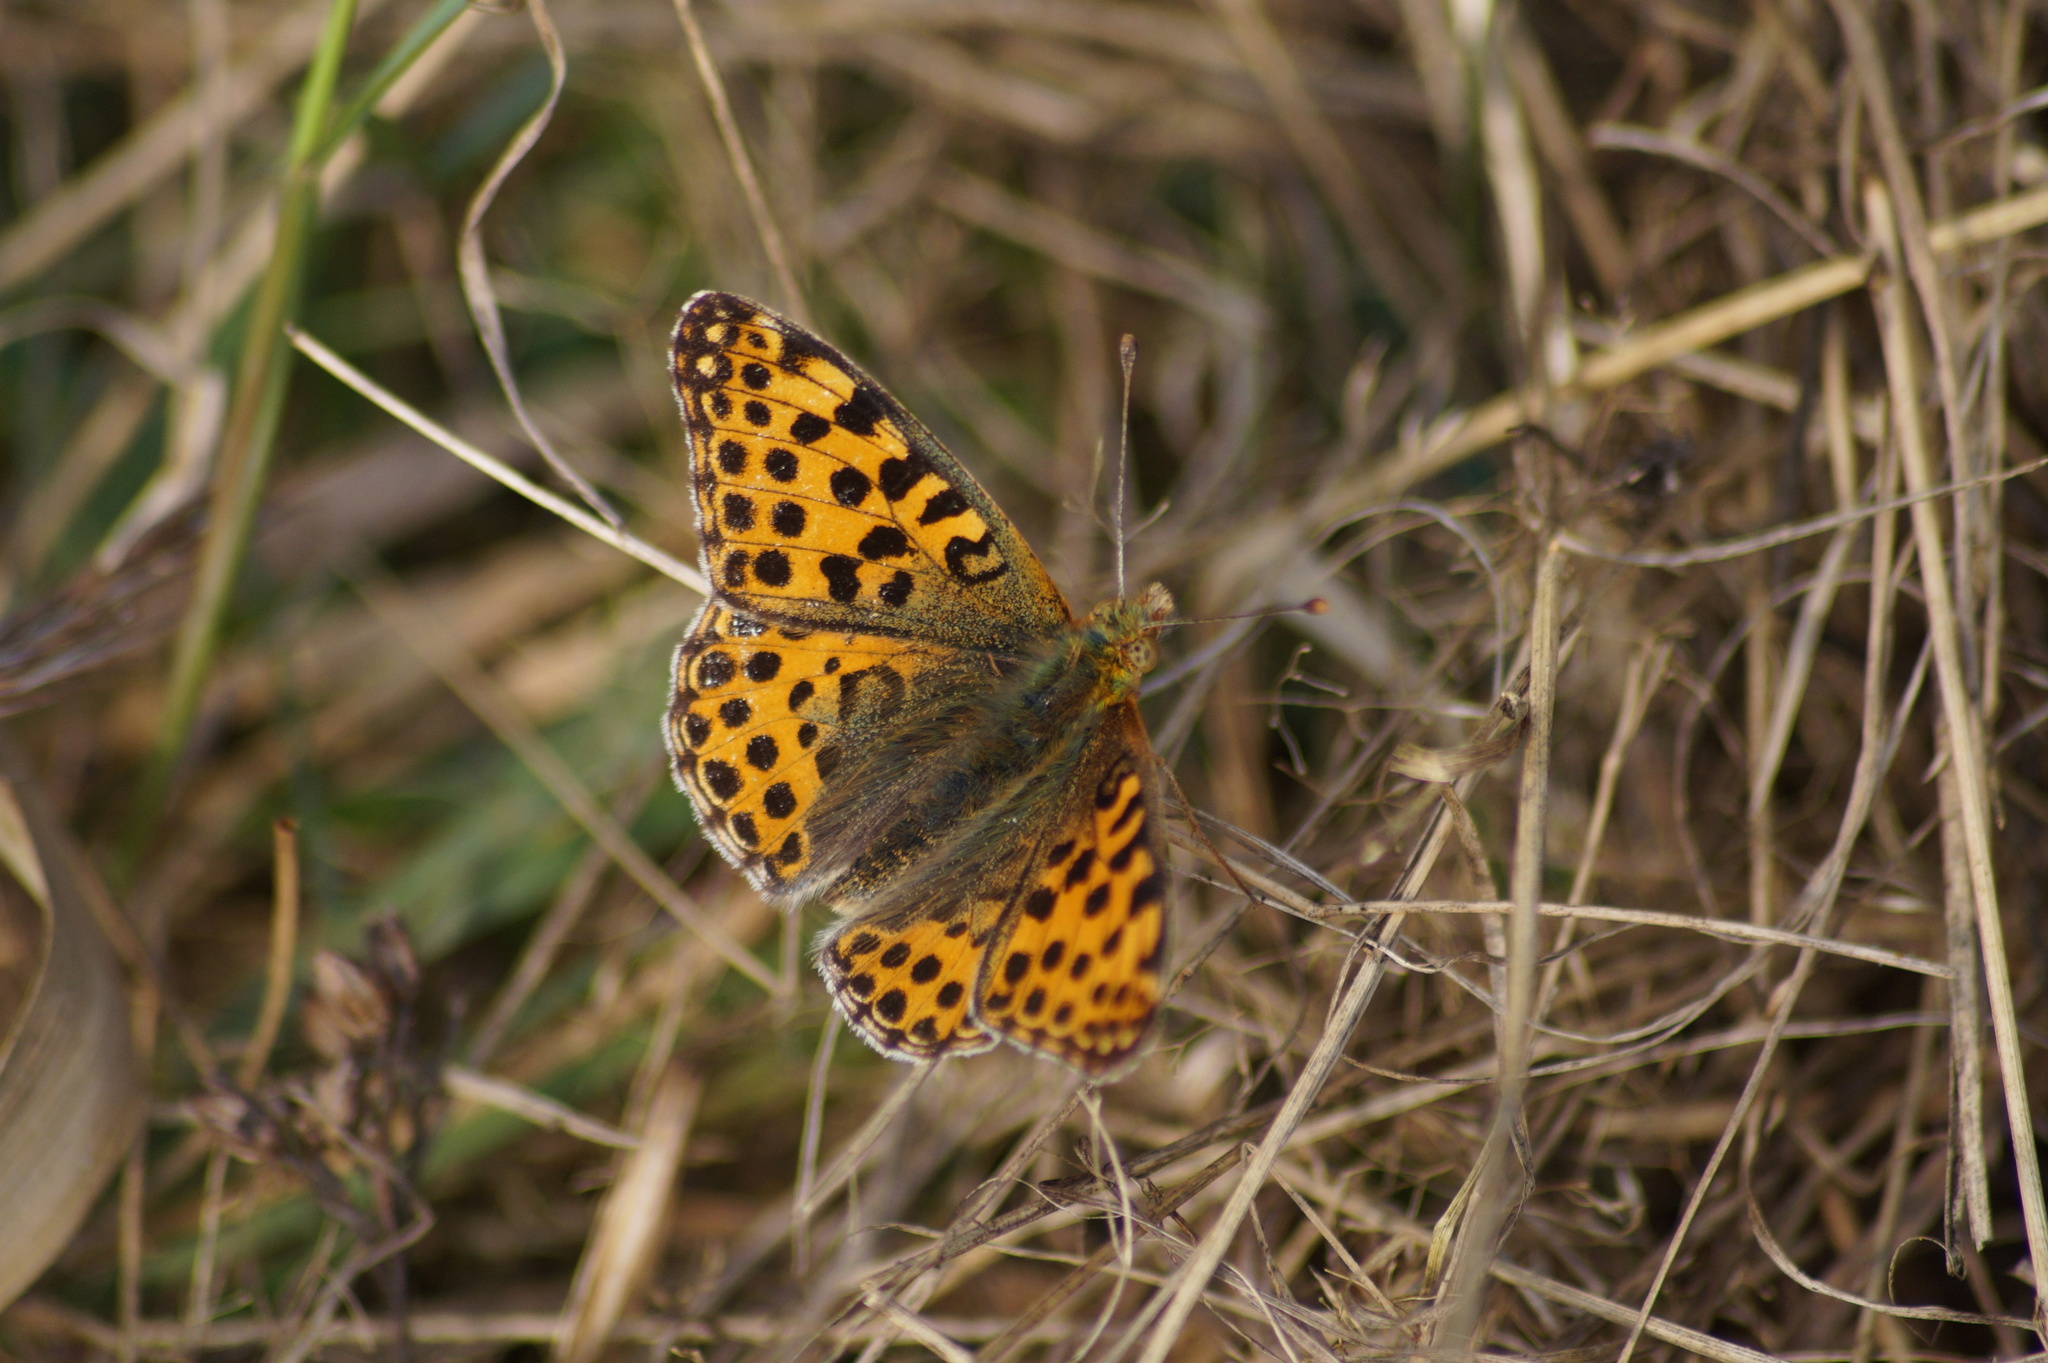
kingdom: Animalia
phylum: Arthropoda
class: Insecta
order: Lepidoptera
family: Nymphalidae
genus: Issoria
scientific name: Issoria lathonia
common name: Queen of spain fritillary
